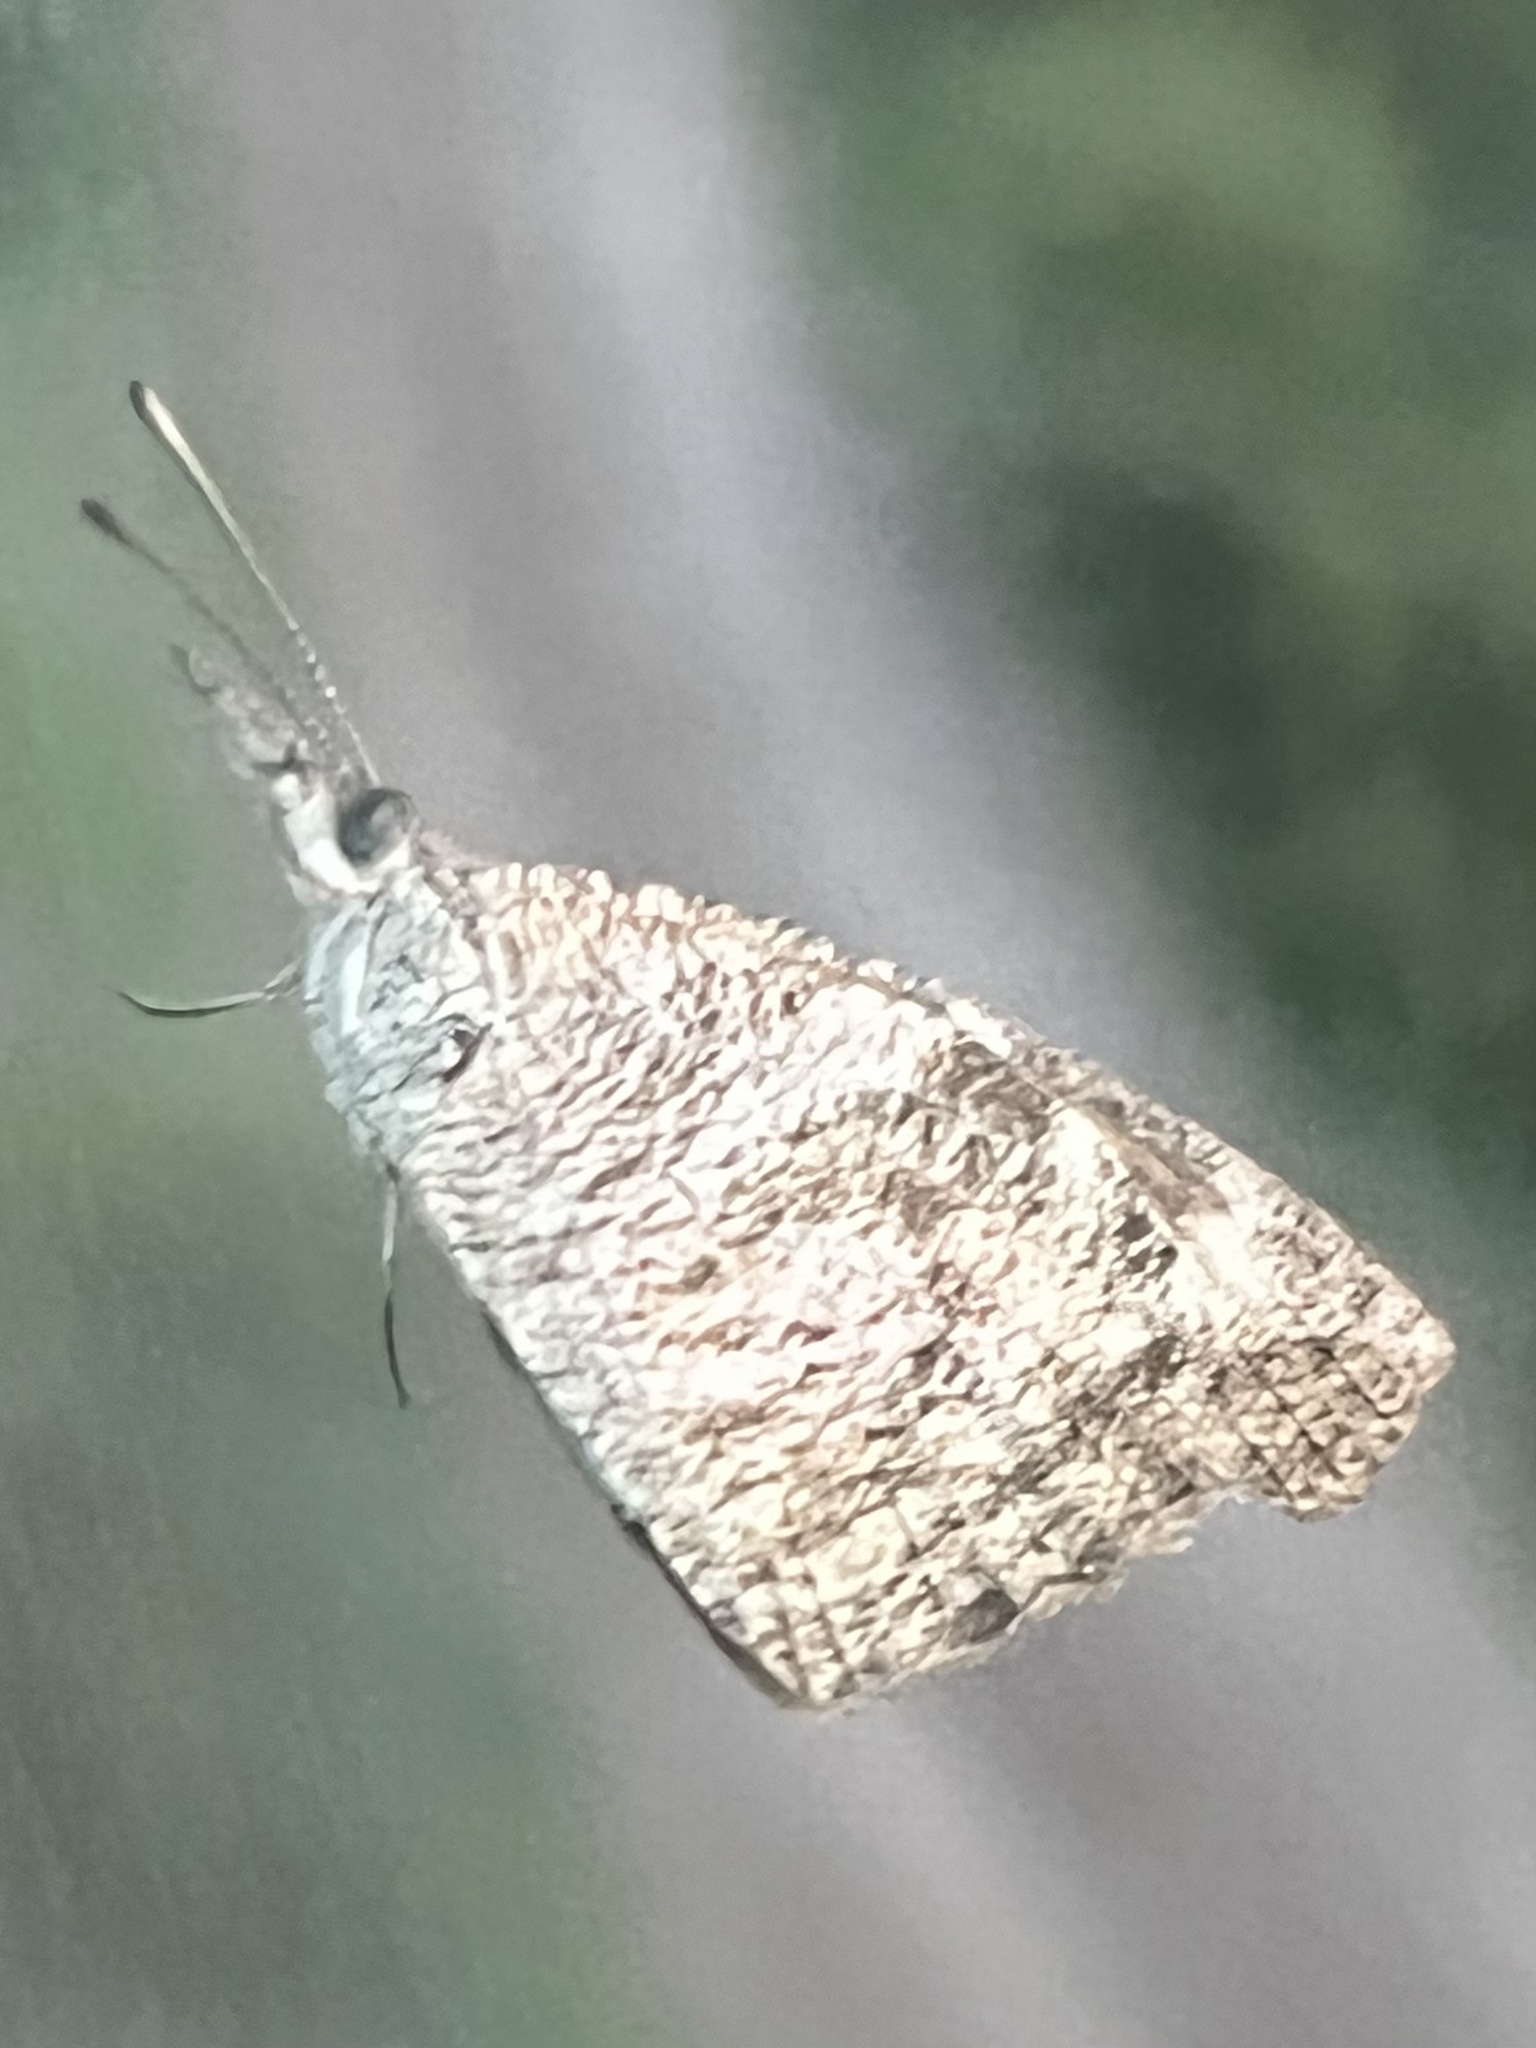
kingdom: Animalia
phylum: Arthropoda
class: Insecta
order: Lepidoptera
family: Nymphalidae
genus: Libytheana
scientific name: Libytheana carinenta
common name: American snout
